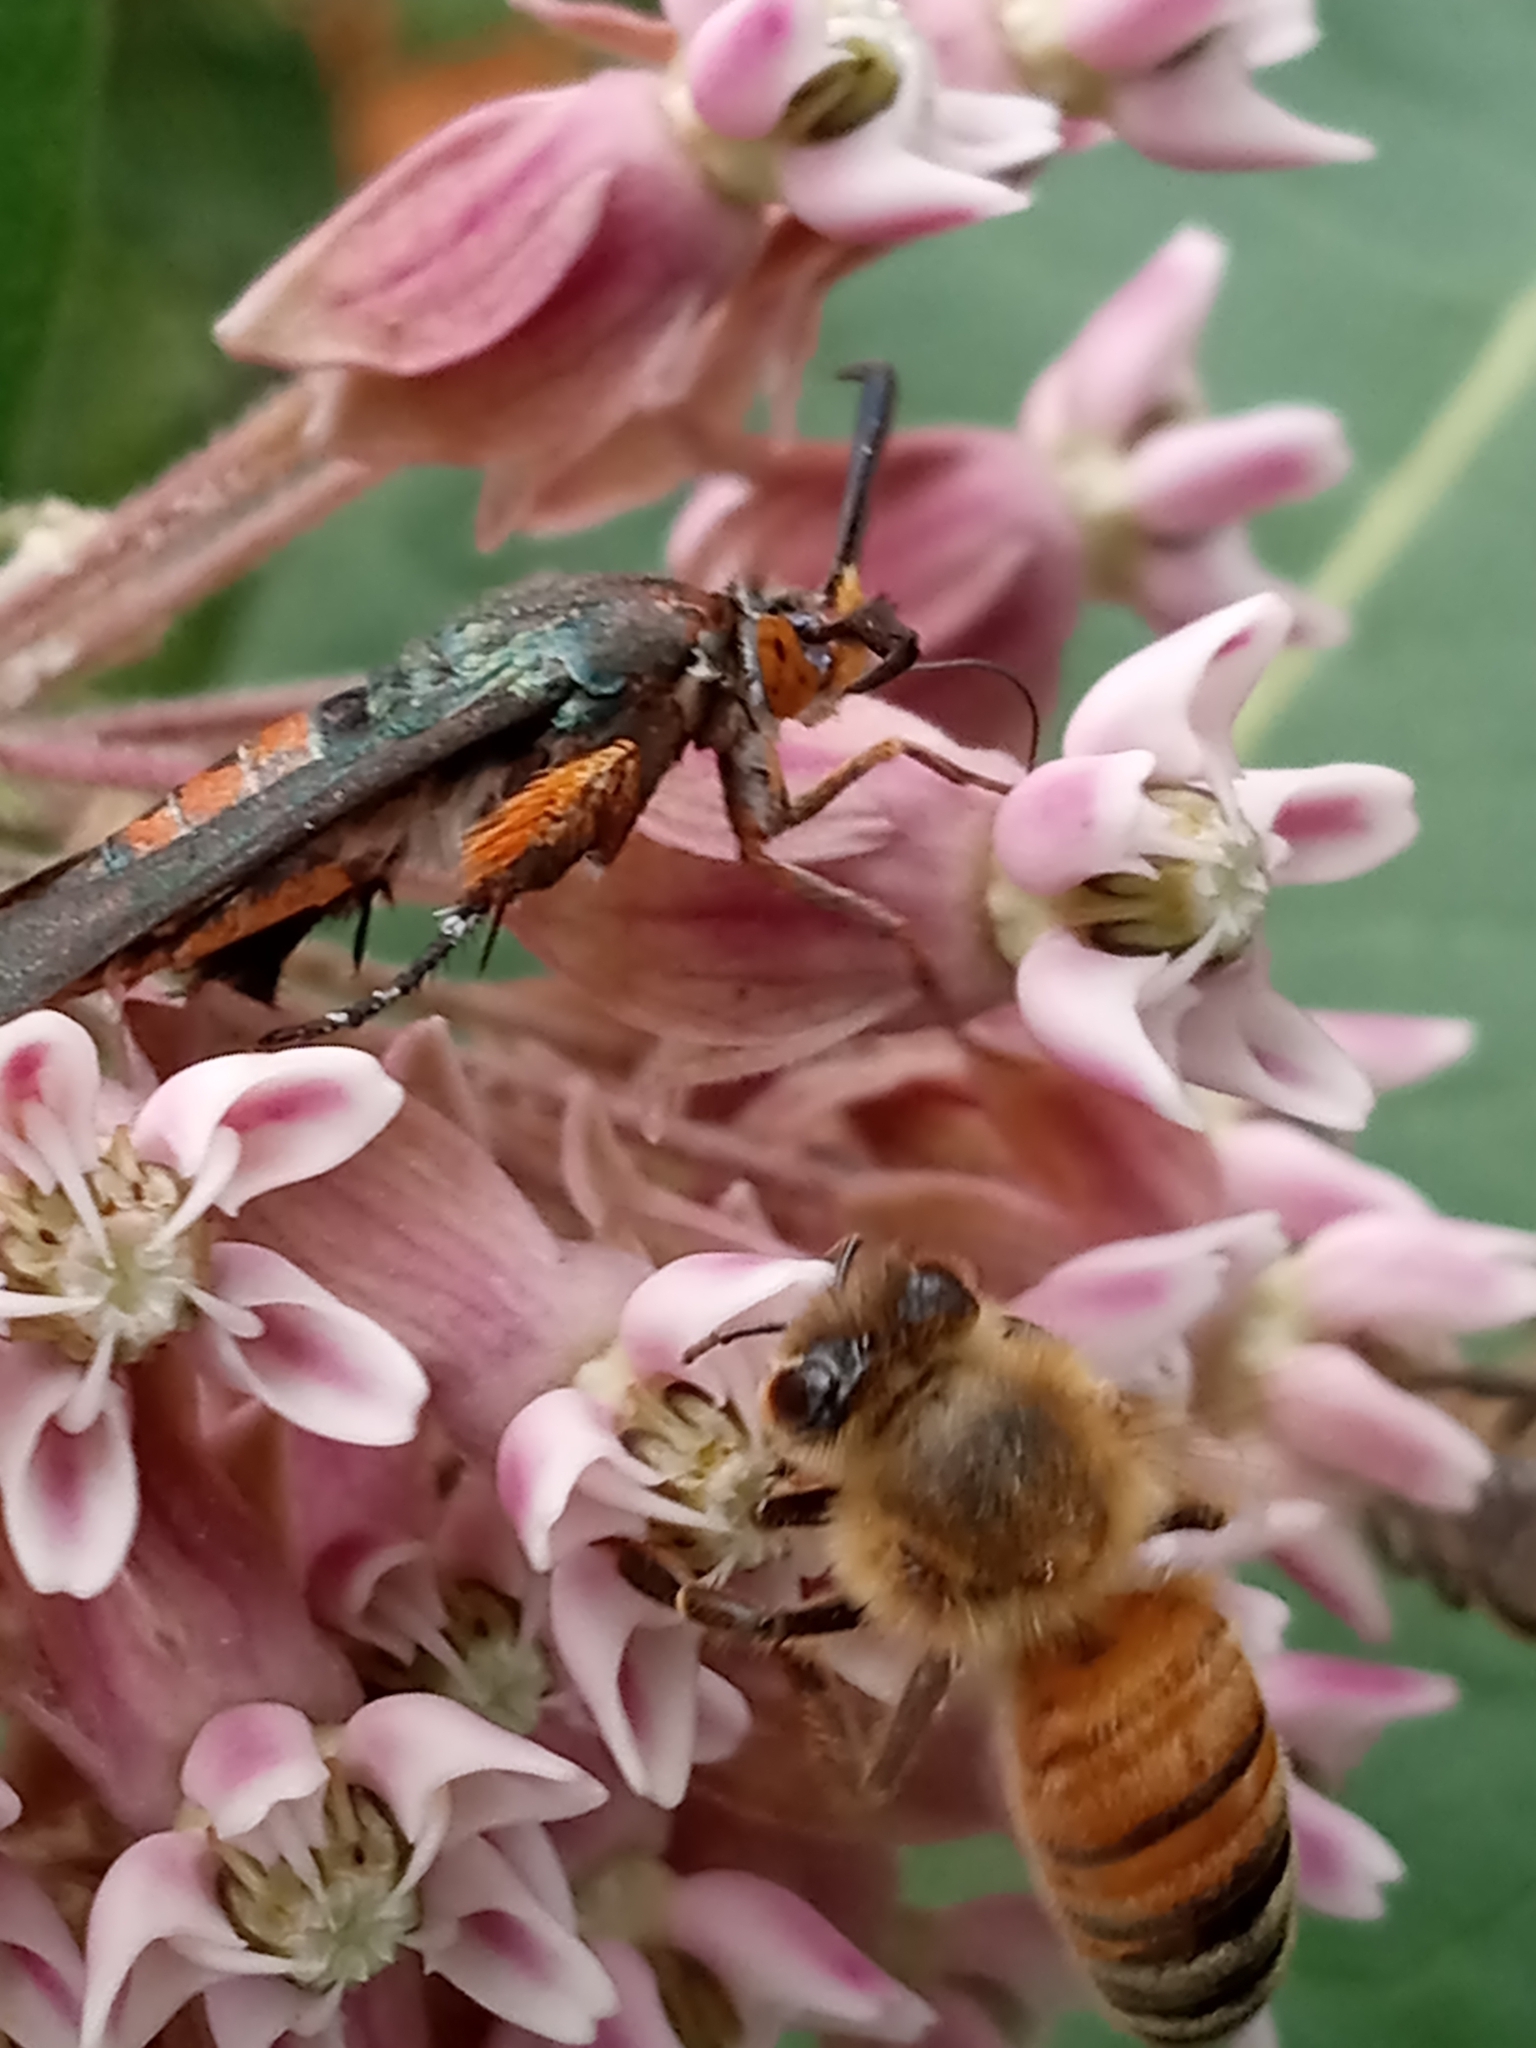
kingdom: Animalia
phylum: Arthropoda
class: Insecta
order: Lepidoptera
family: Sesiidae
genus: Eichlinia
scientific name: Eichlinia cucurbitae
